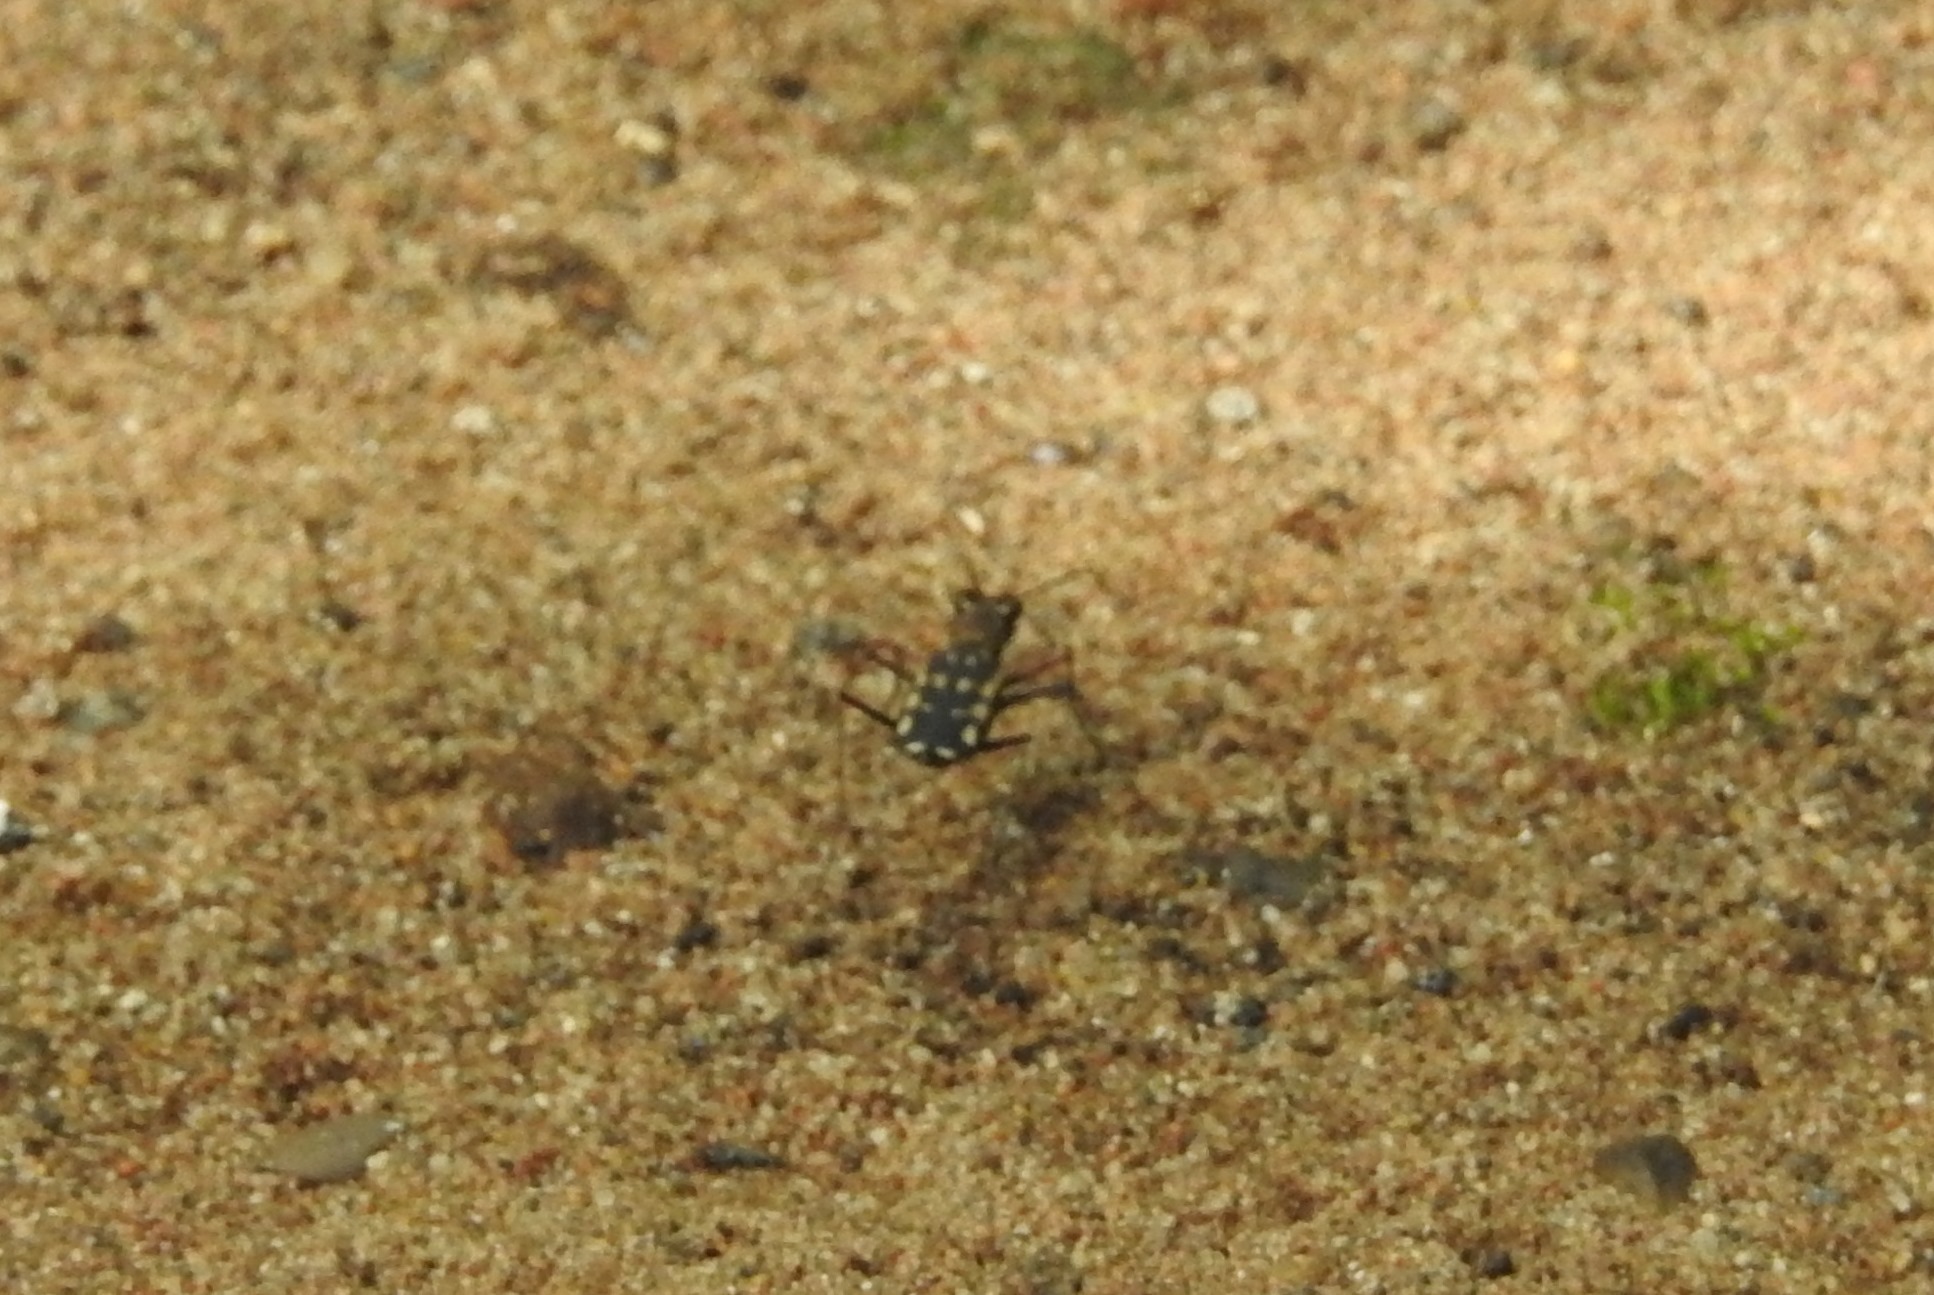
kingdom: Animalia
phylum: Arthropoda
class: Insecta
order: Coleoptera
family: Carabidae
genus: Lophyra
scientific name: Lophyra striolata
